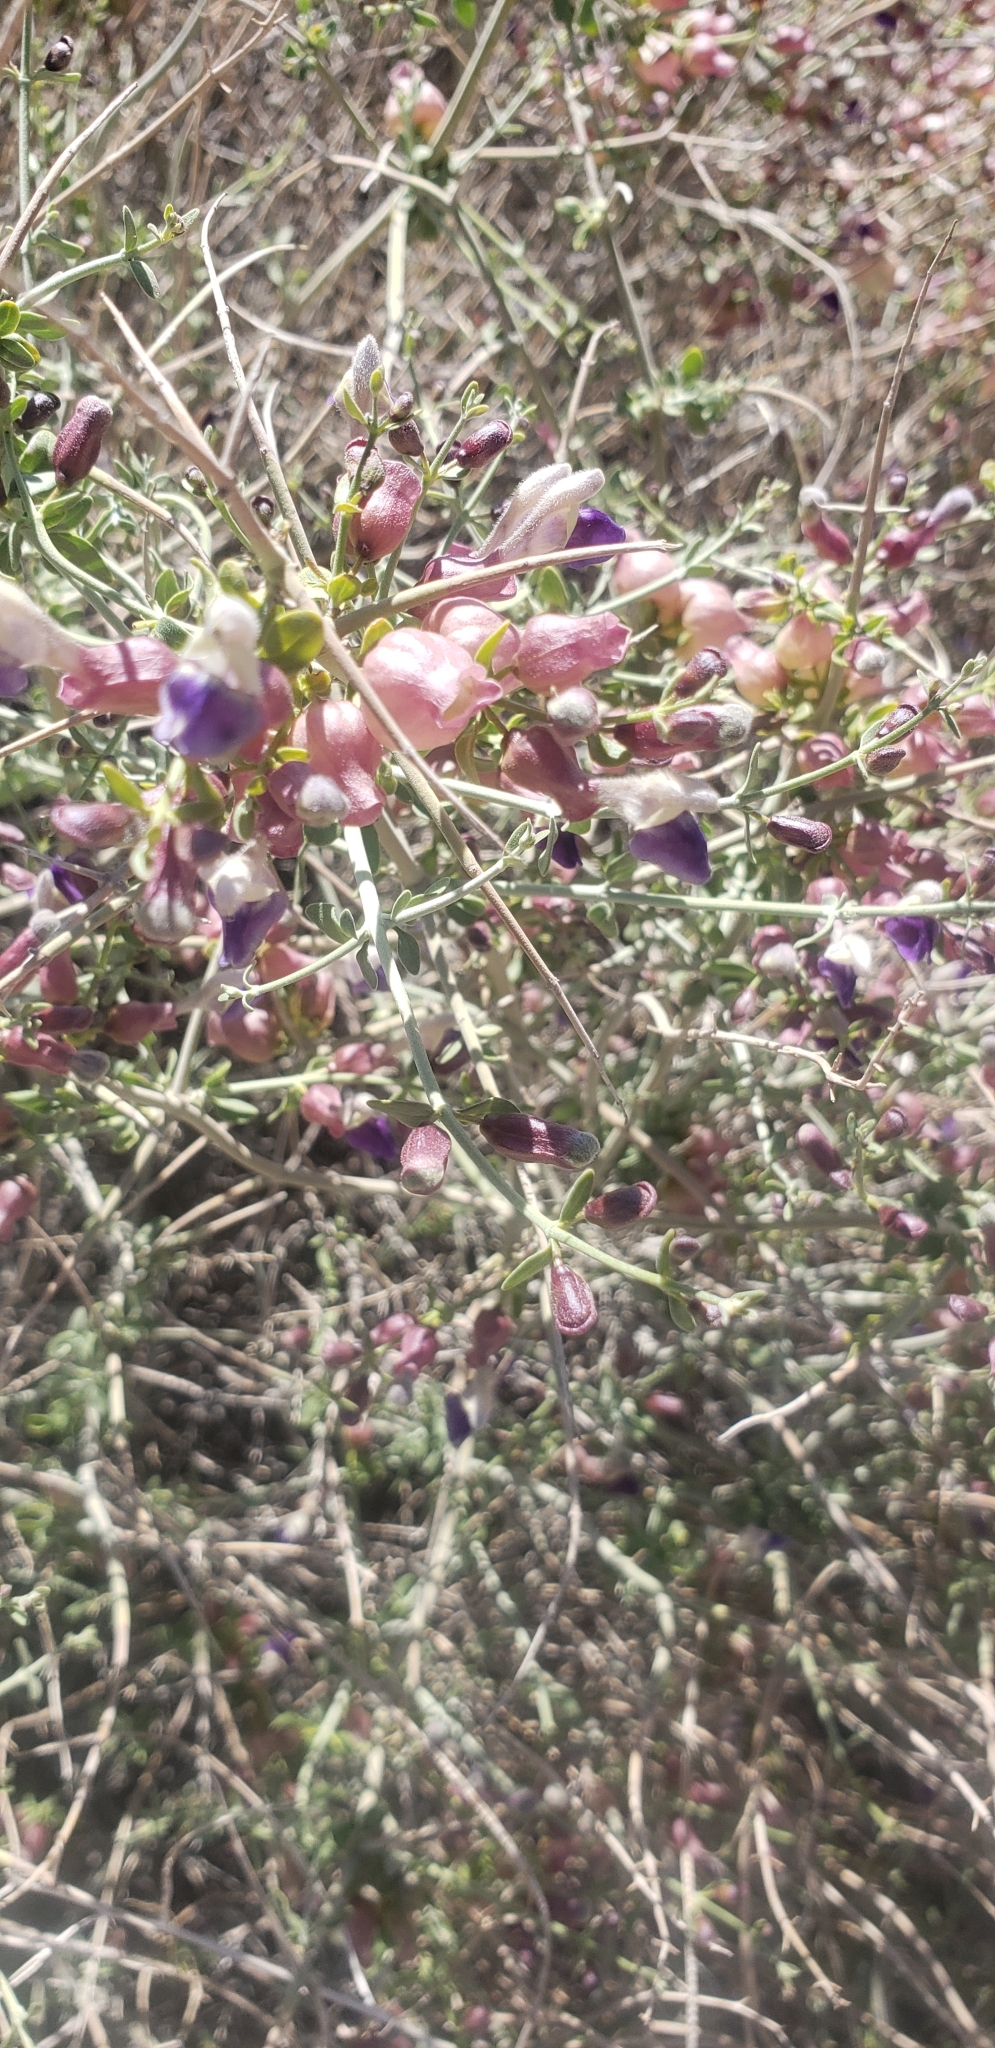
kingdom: Plantae
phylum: Tracheophyta
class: Magnoliopsida
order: Lamiales
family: Lamiaceae
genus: Scutellaria
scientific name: Scutellaria mexicana
